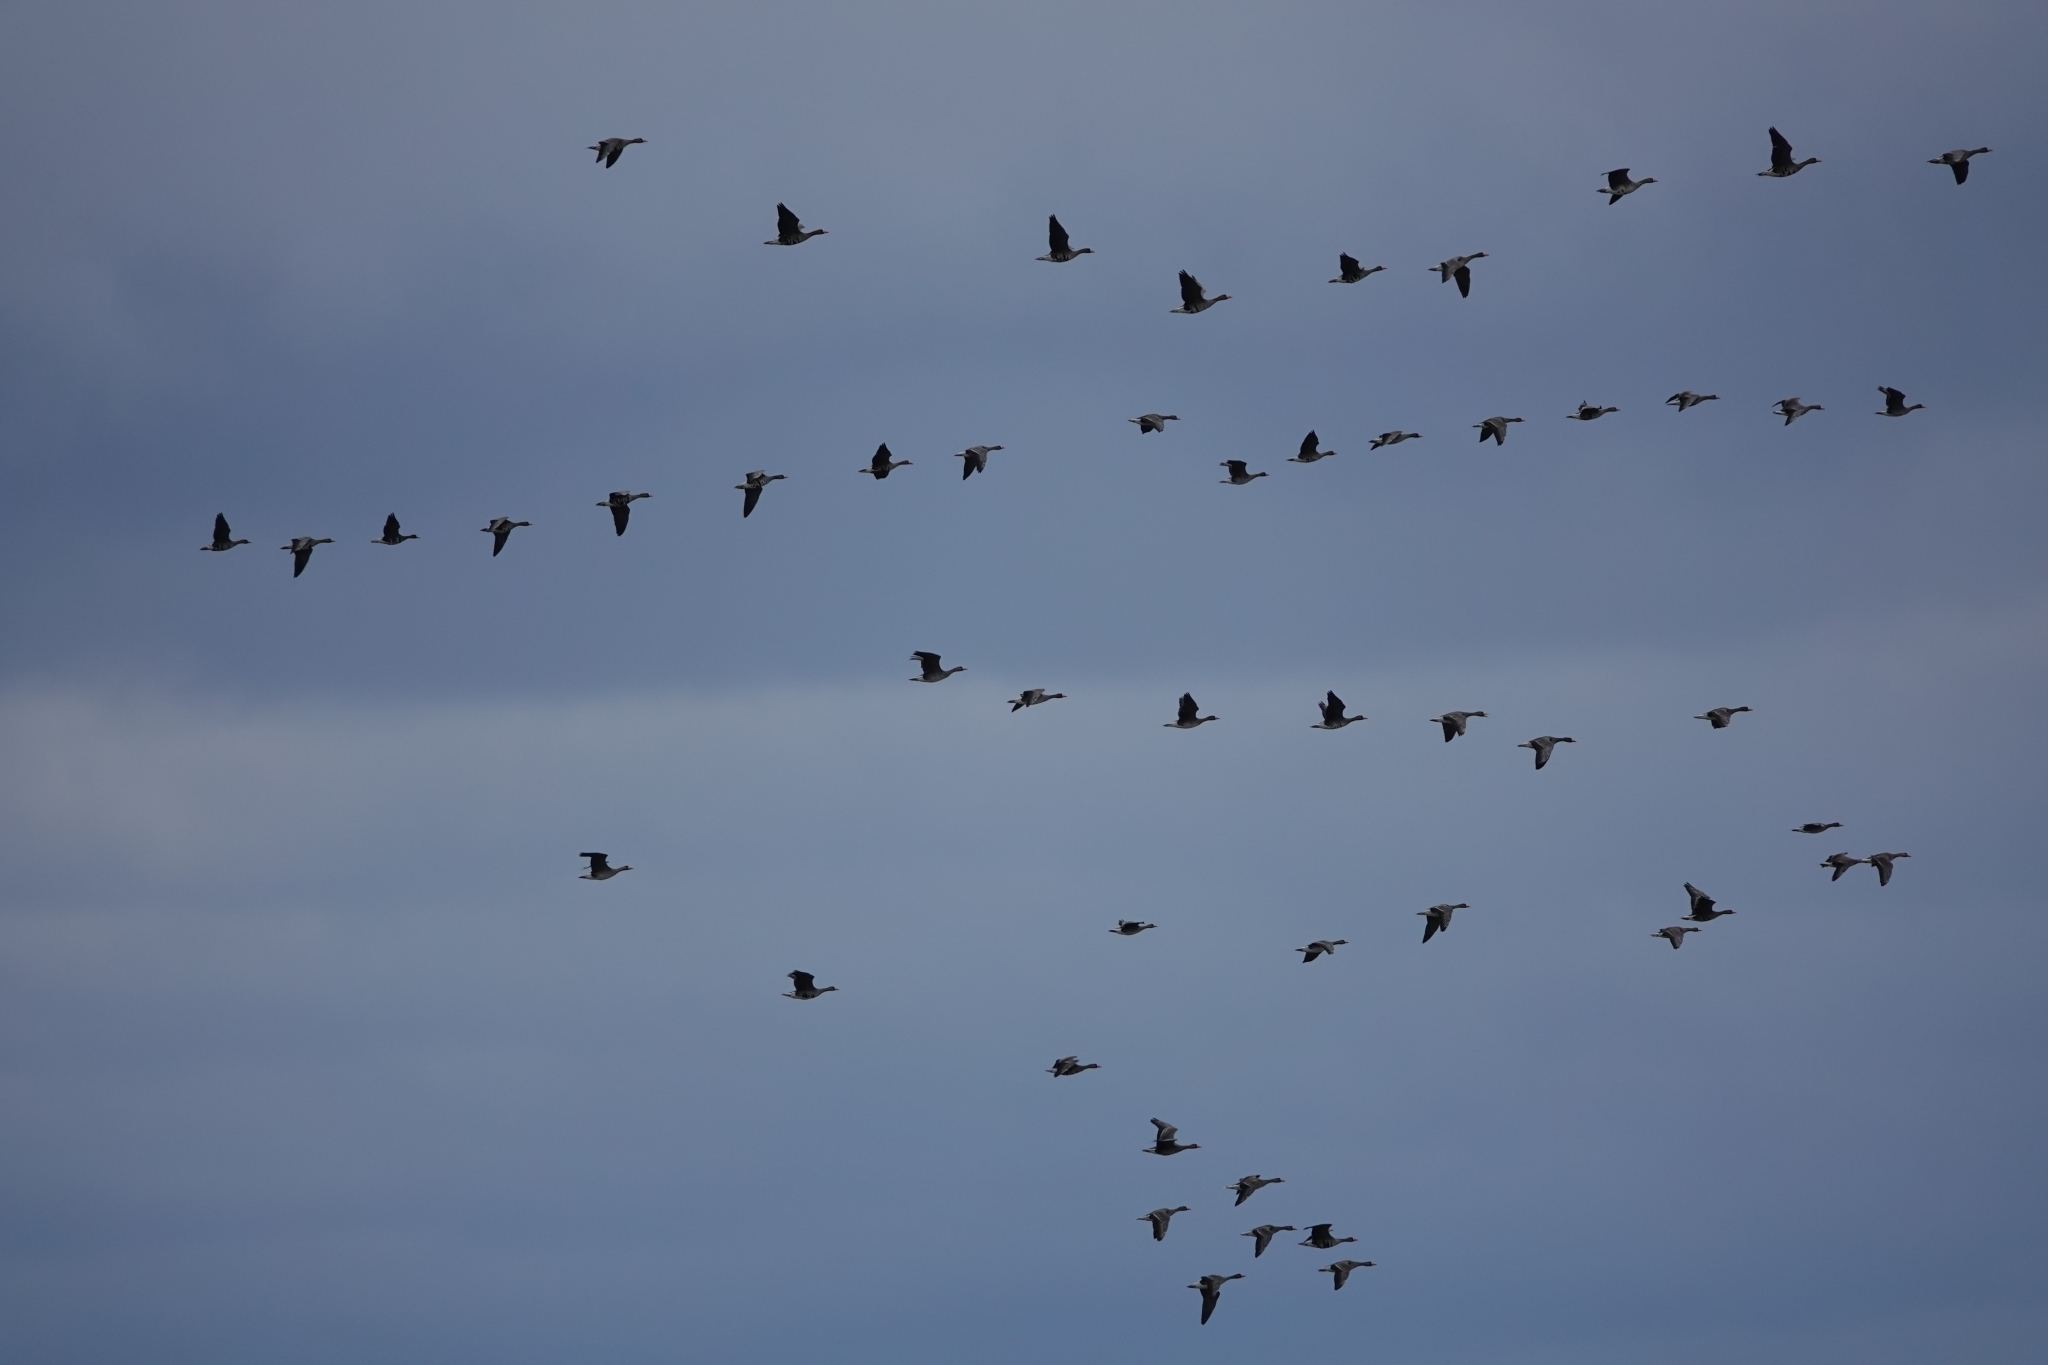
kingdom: Animalia
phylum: Chordata
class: Aves
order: Anseriformes
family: Anatidae
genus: Anser
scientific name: Anser albifrons
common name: Greater white-fronted goose
